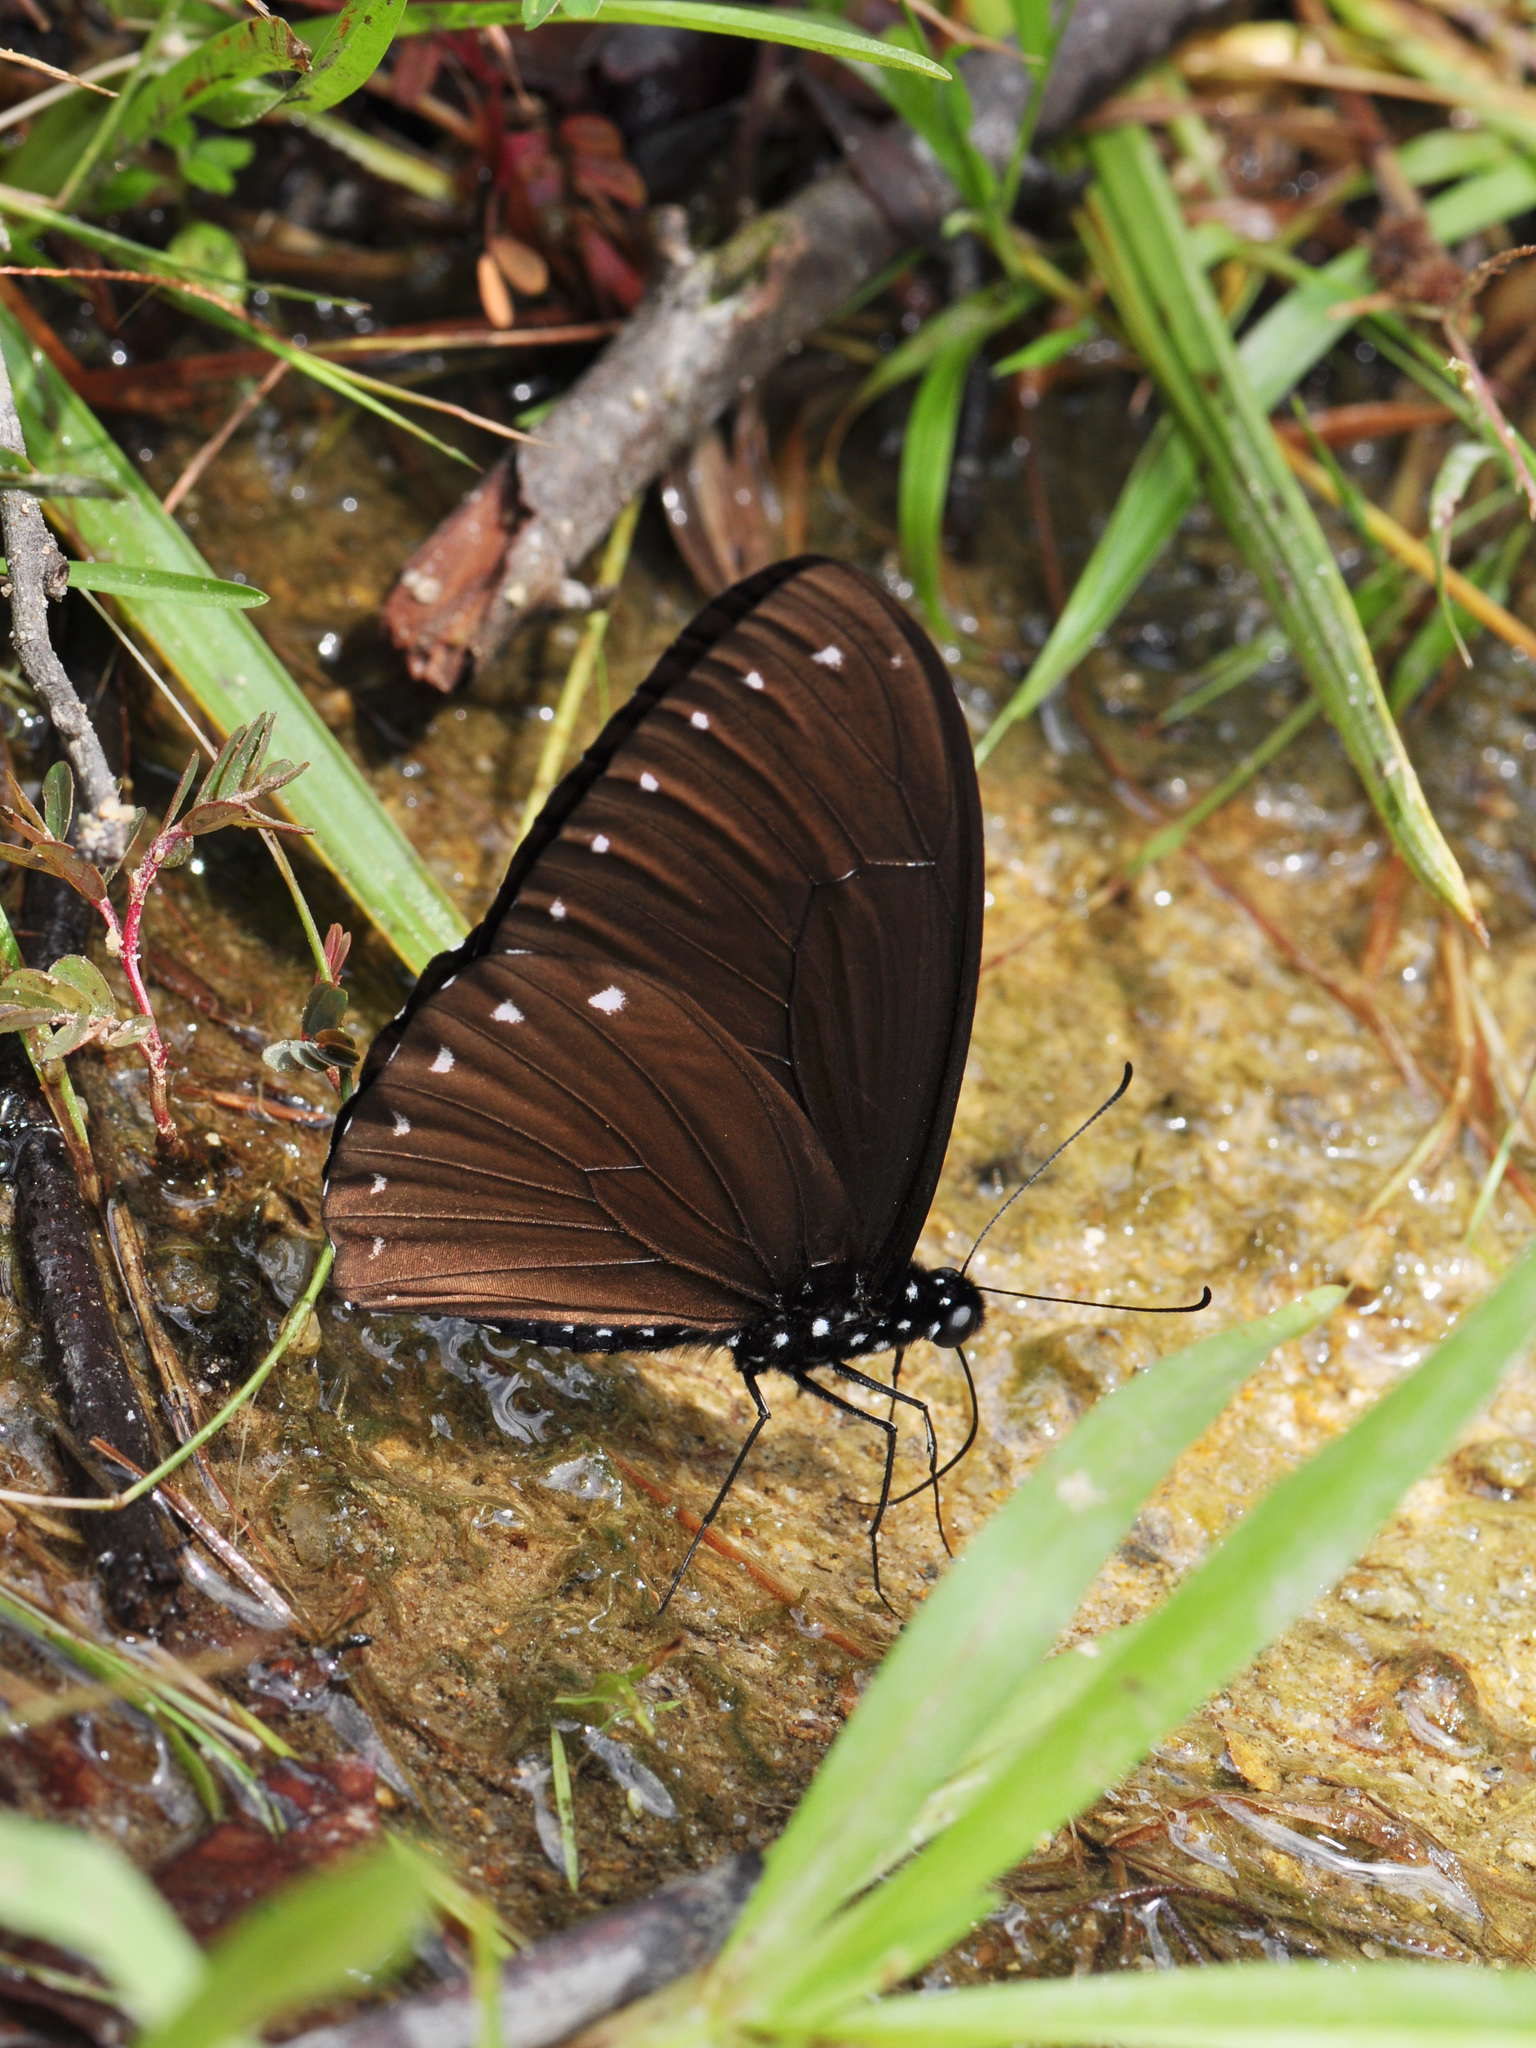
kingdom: Animalia
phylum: Arthropoda
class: Insecta
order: Lepidoptera
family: Papilionidae
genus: Papilio
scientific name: Papilio paradoxa
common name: Great blue mime swallowtail
